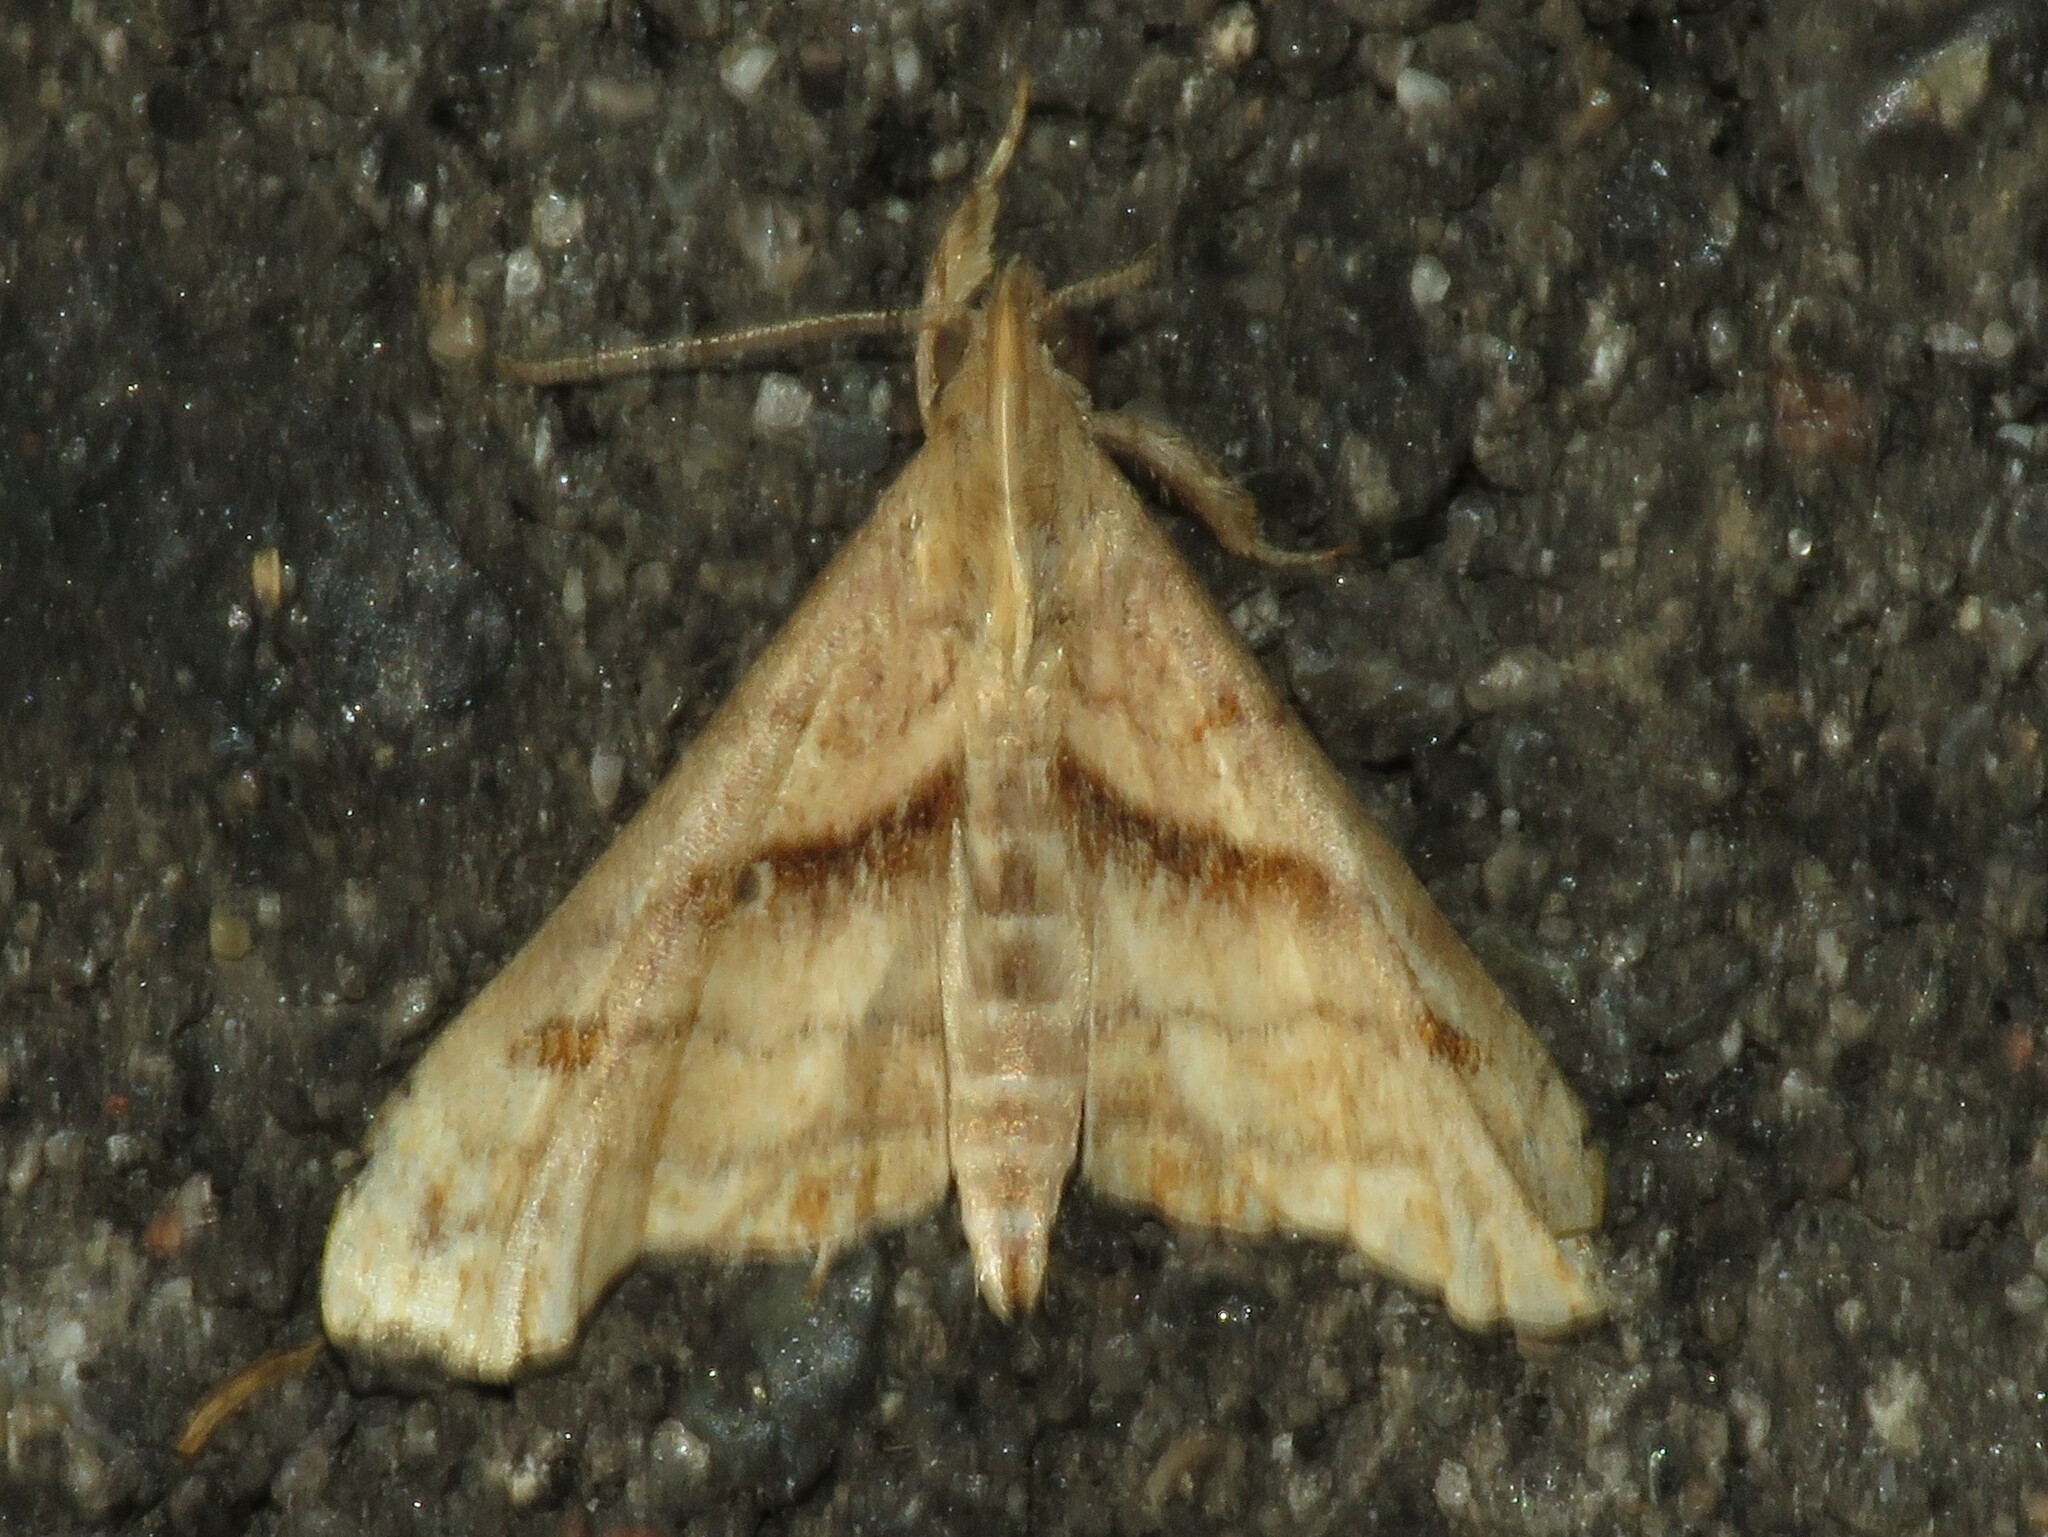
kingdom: Animalia
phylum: Arthropoda
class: Insecta
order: Lepidoptera
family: Erebidae
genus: Palthis
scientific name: Palthis angulalis
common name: Dark-spotted palthis moth
